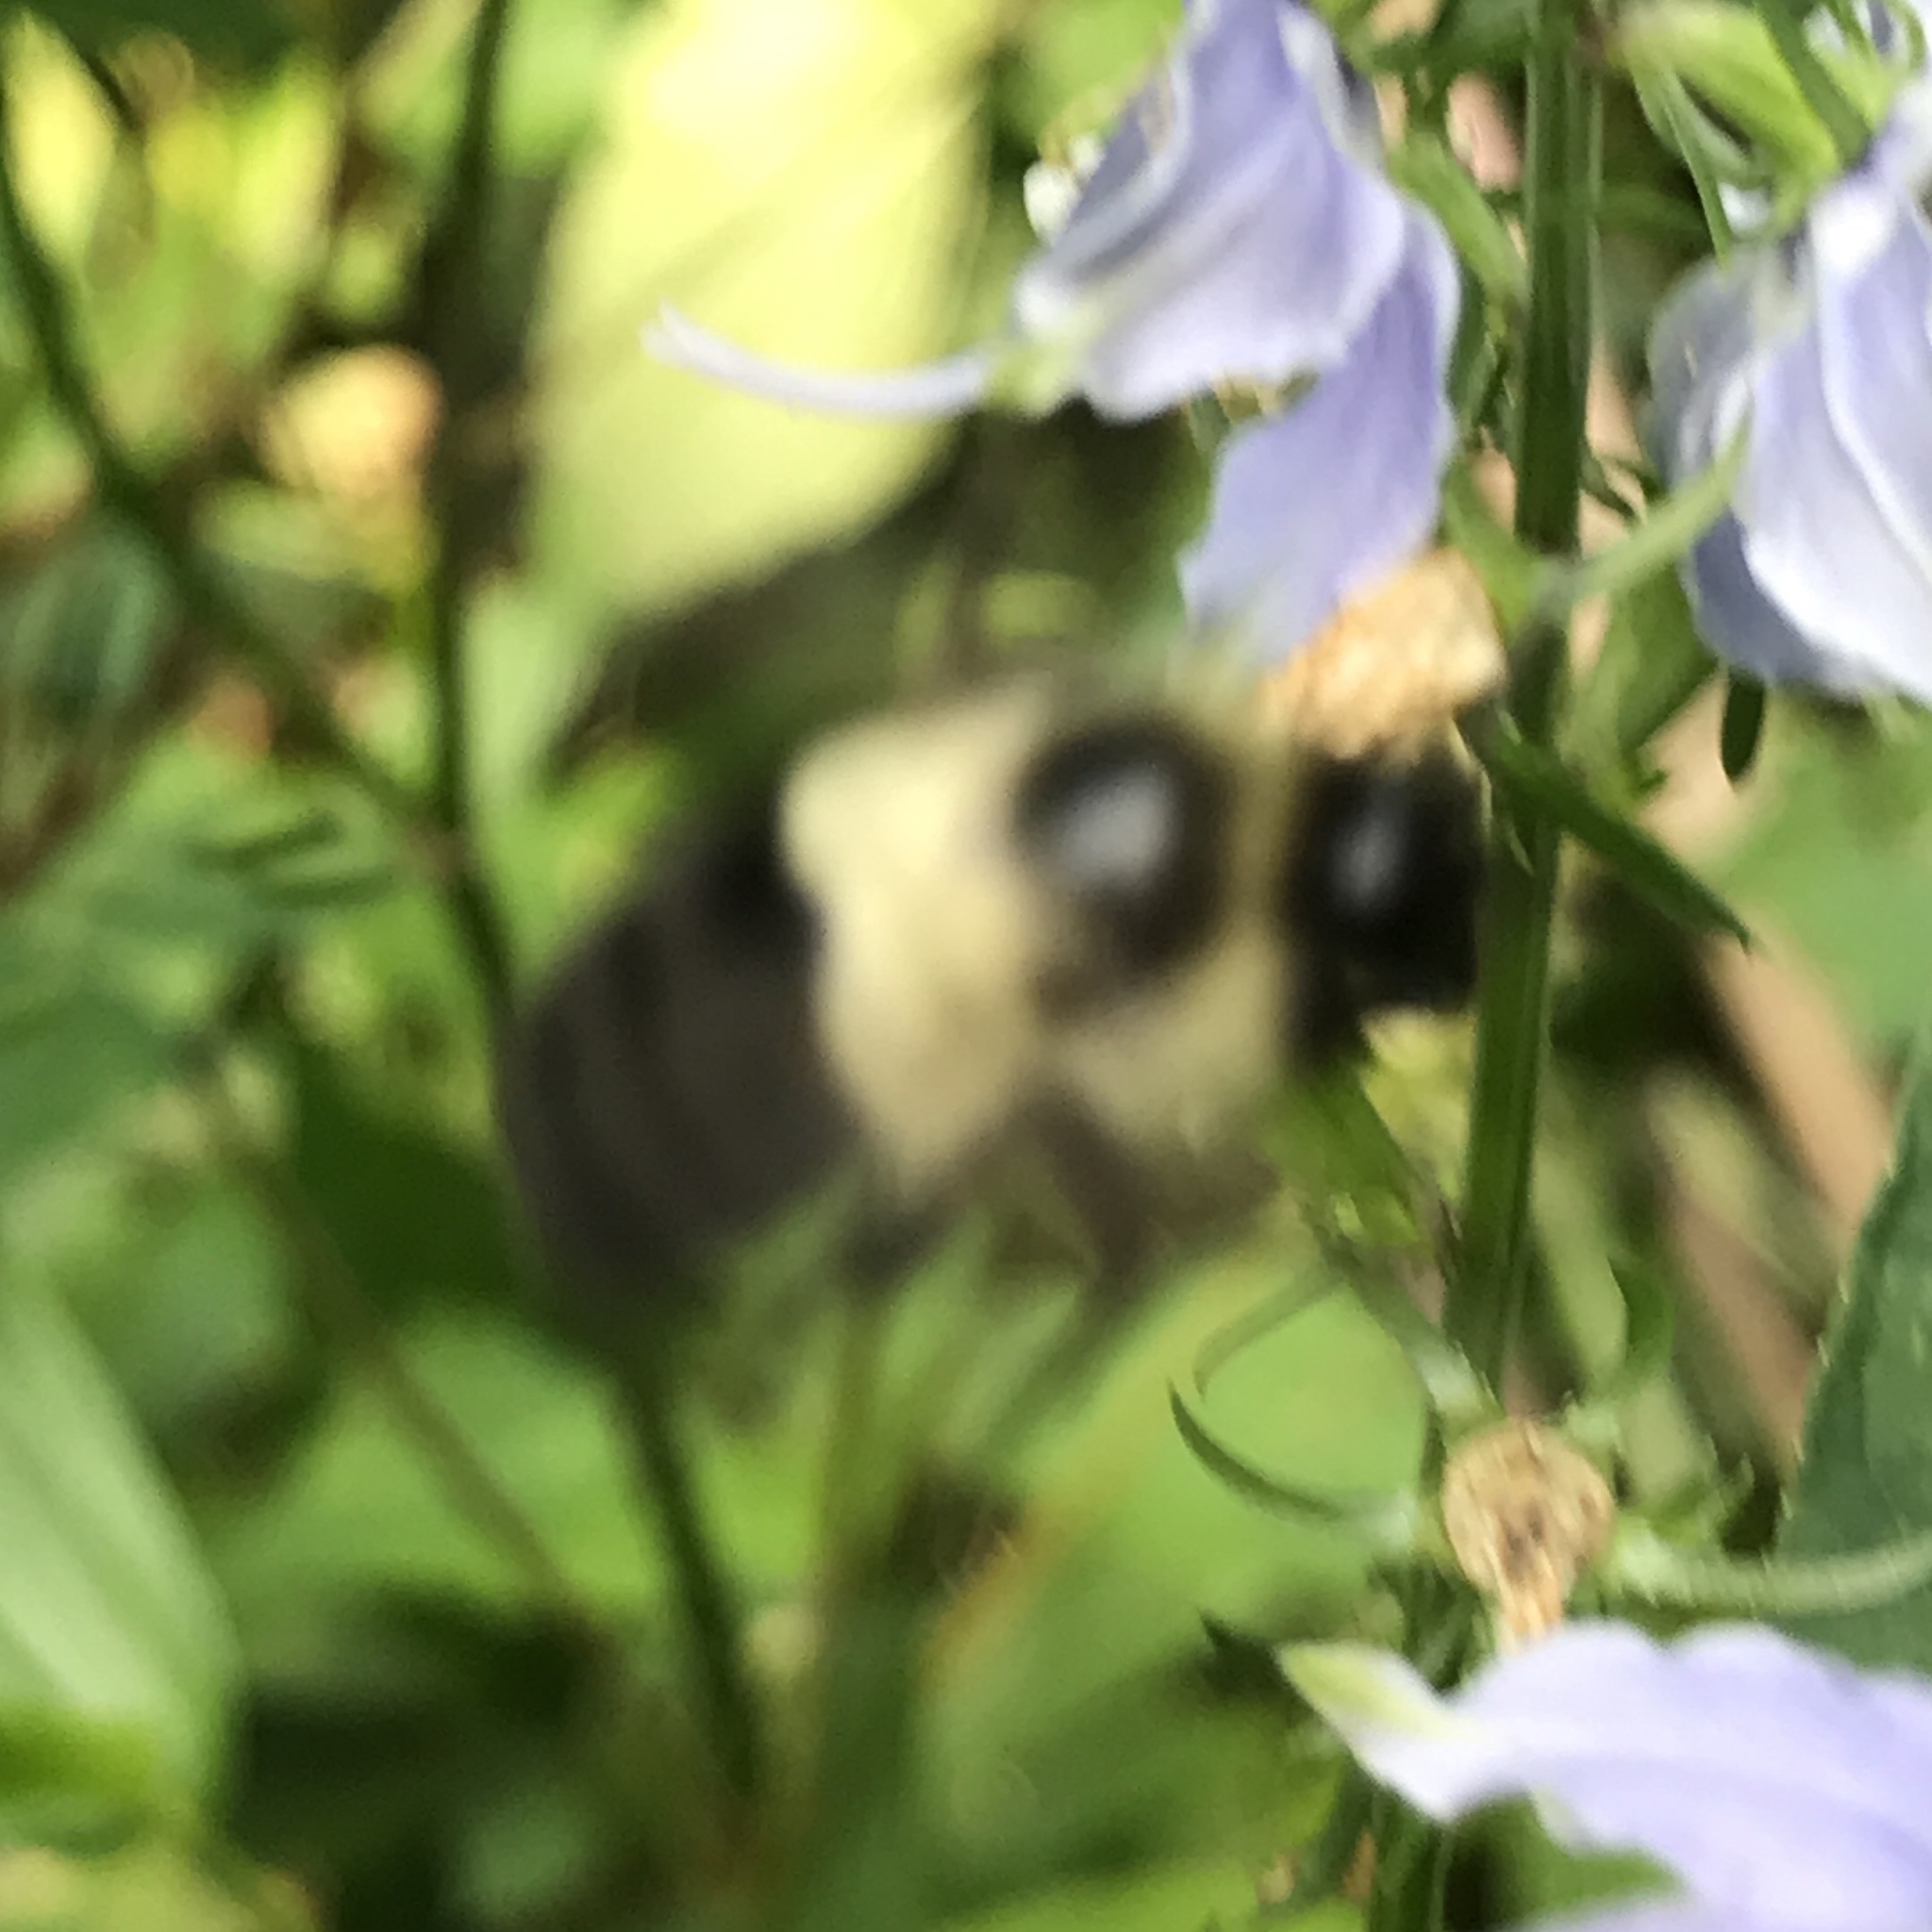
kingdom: Animalia
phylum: Arthropoda
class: Insecta
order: Hymenoptera
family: Apidae
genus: Bombus
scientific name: Bombus impatiens
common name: Common eastern bumble bee
